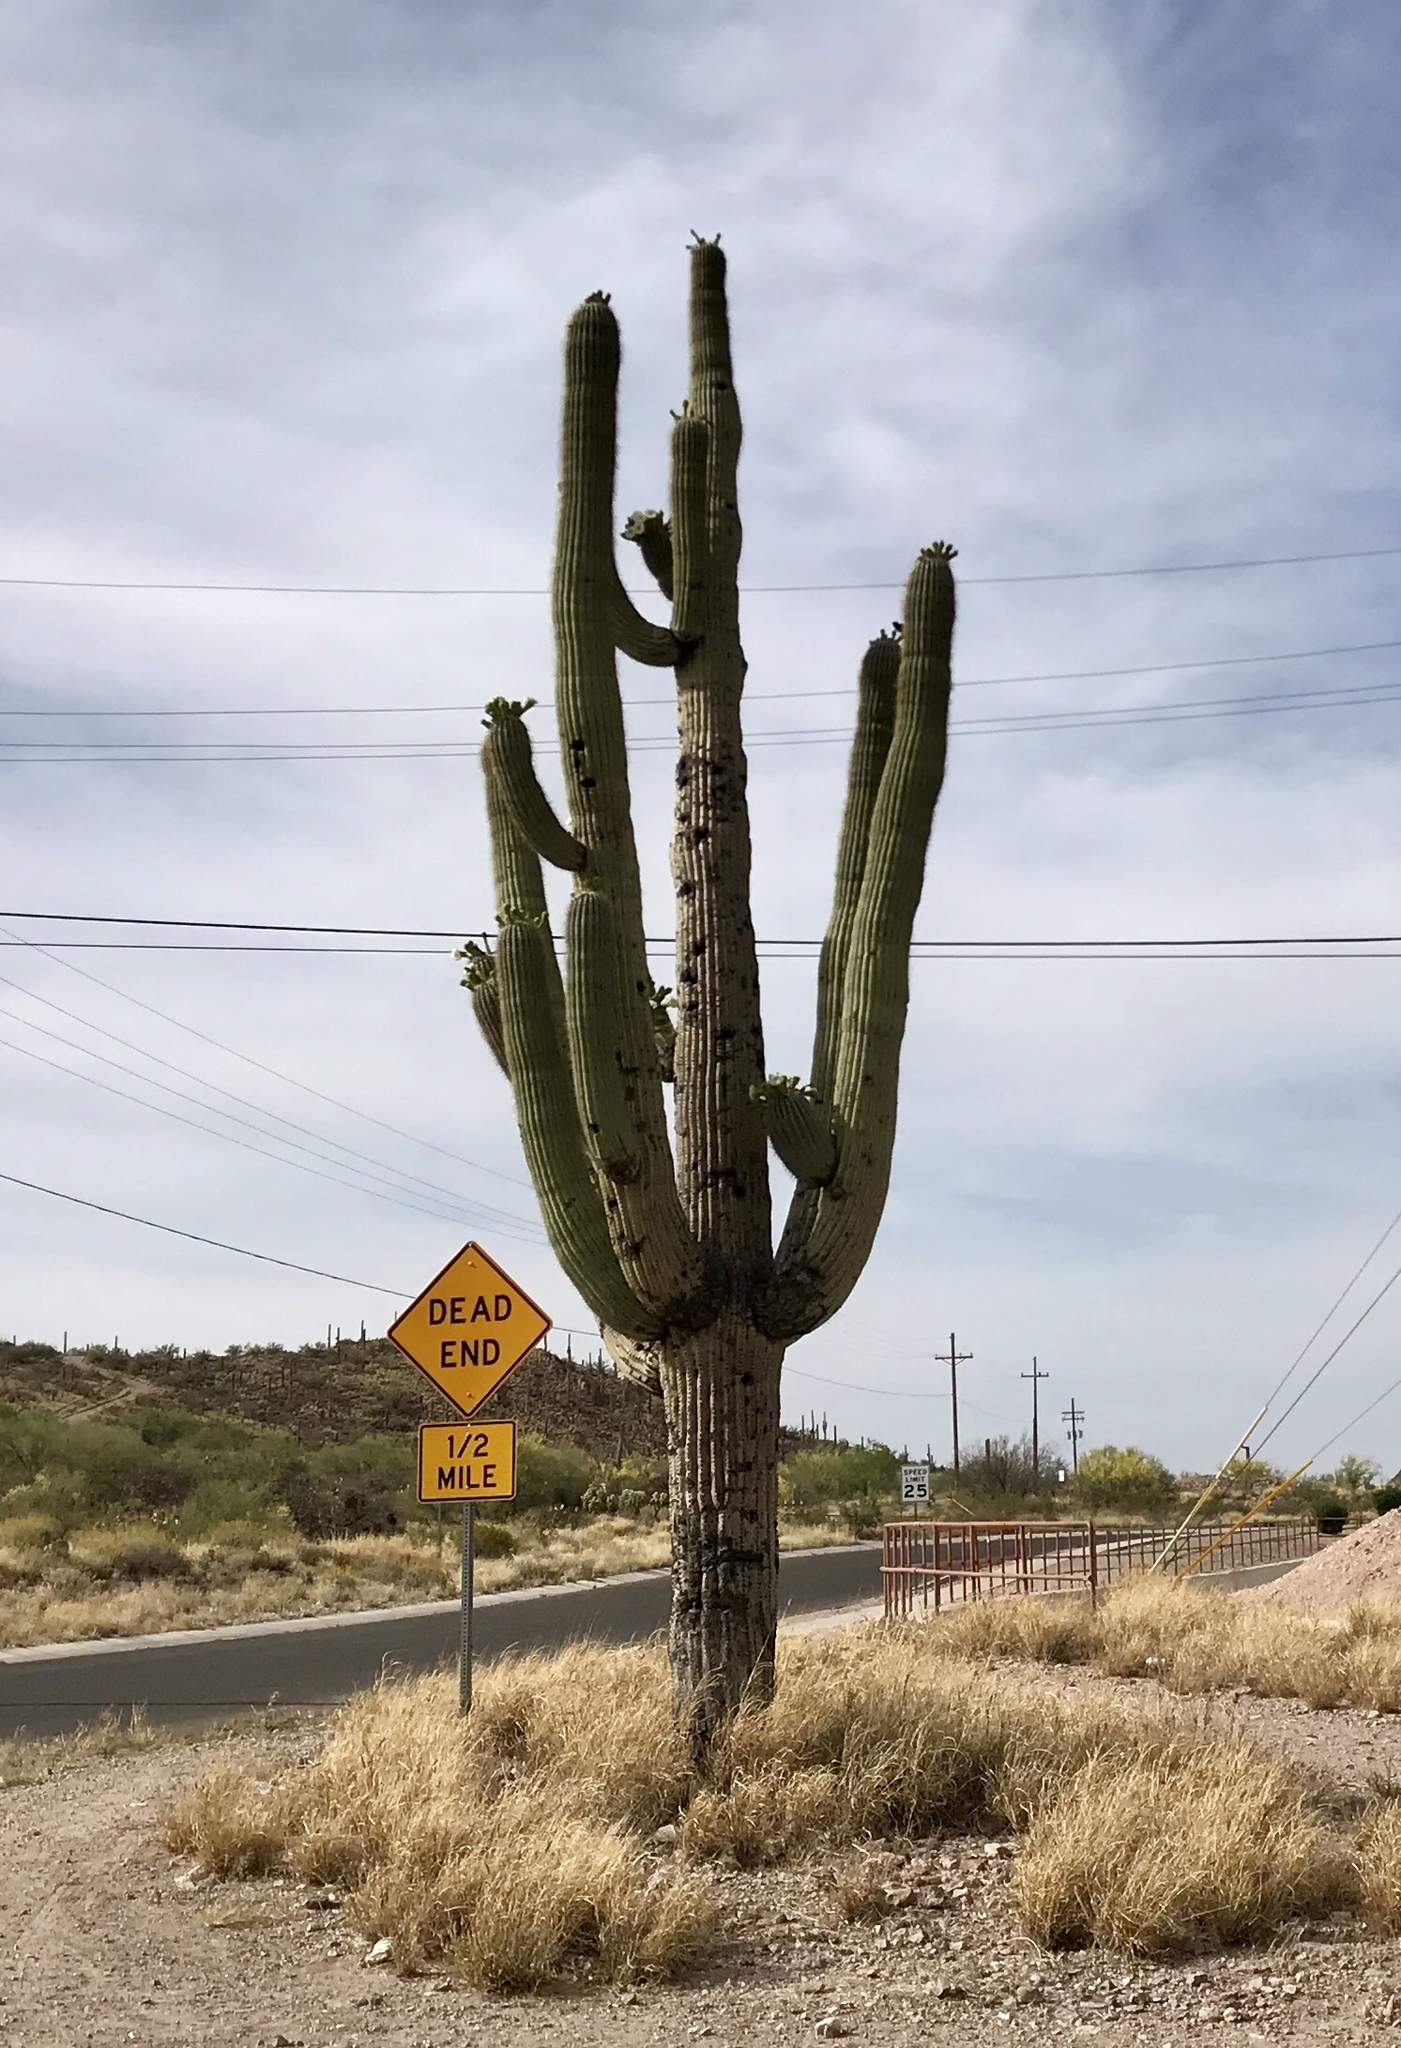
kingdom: Plantae
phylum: Tracheophyta
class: Magnoliopsida
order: Caryophyllales
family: Cactaceae
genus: Carnegiea
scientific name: Carnegiea gigantea
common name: Saguaro
